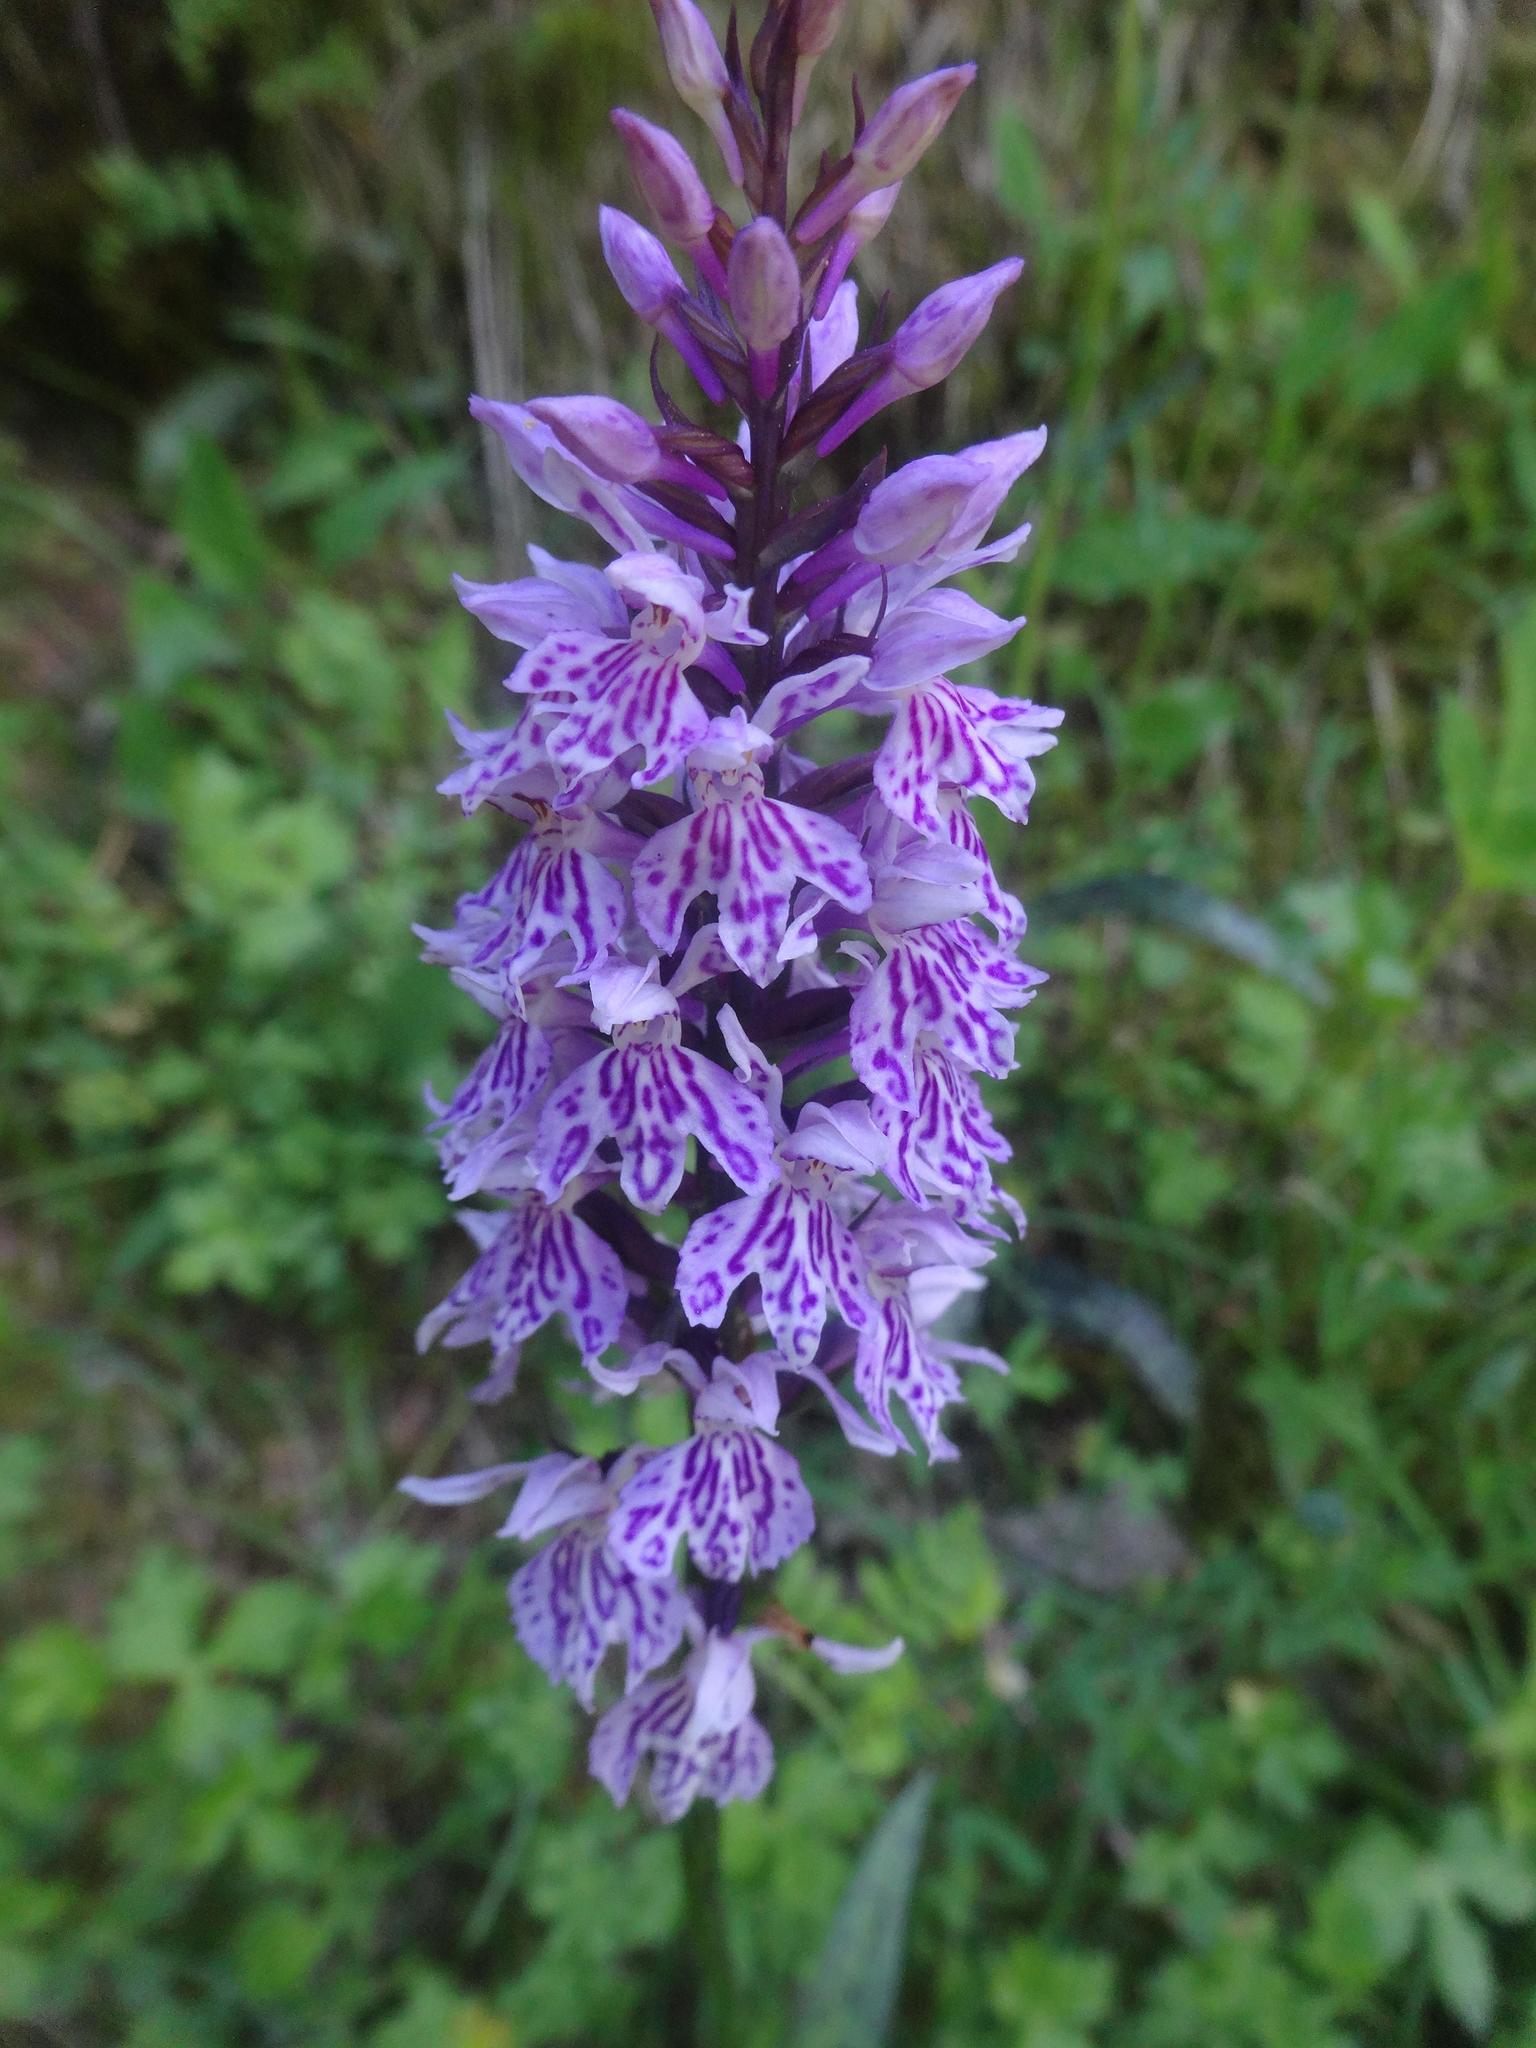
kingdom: Plantae
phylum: Tracheophyta
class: Liliopsida
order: Asparagales
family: Orchidaceae
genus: Dactylorhiza
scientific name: Dactylorhiza maculata
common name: Heath spotted-orchid
